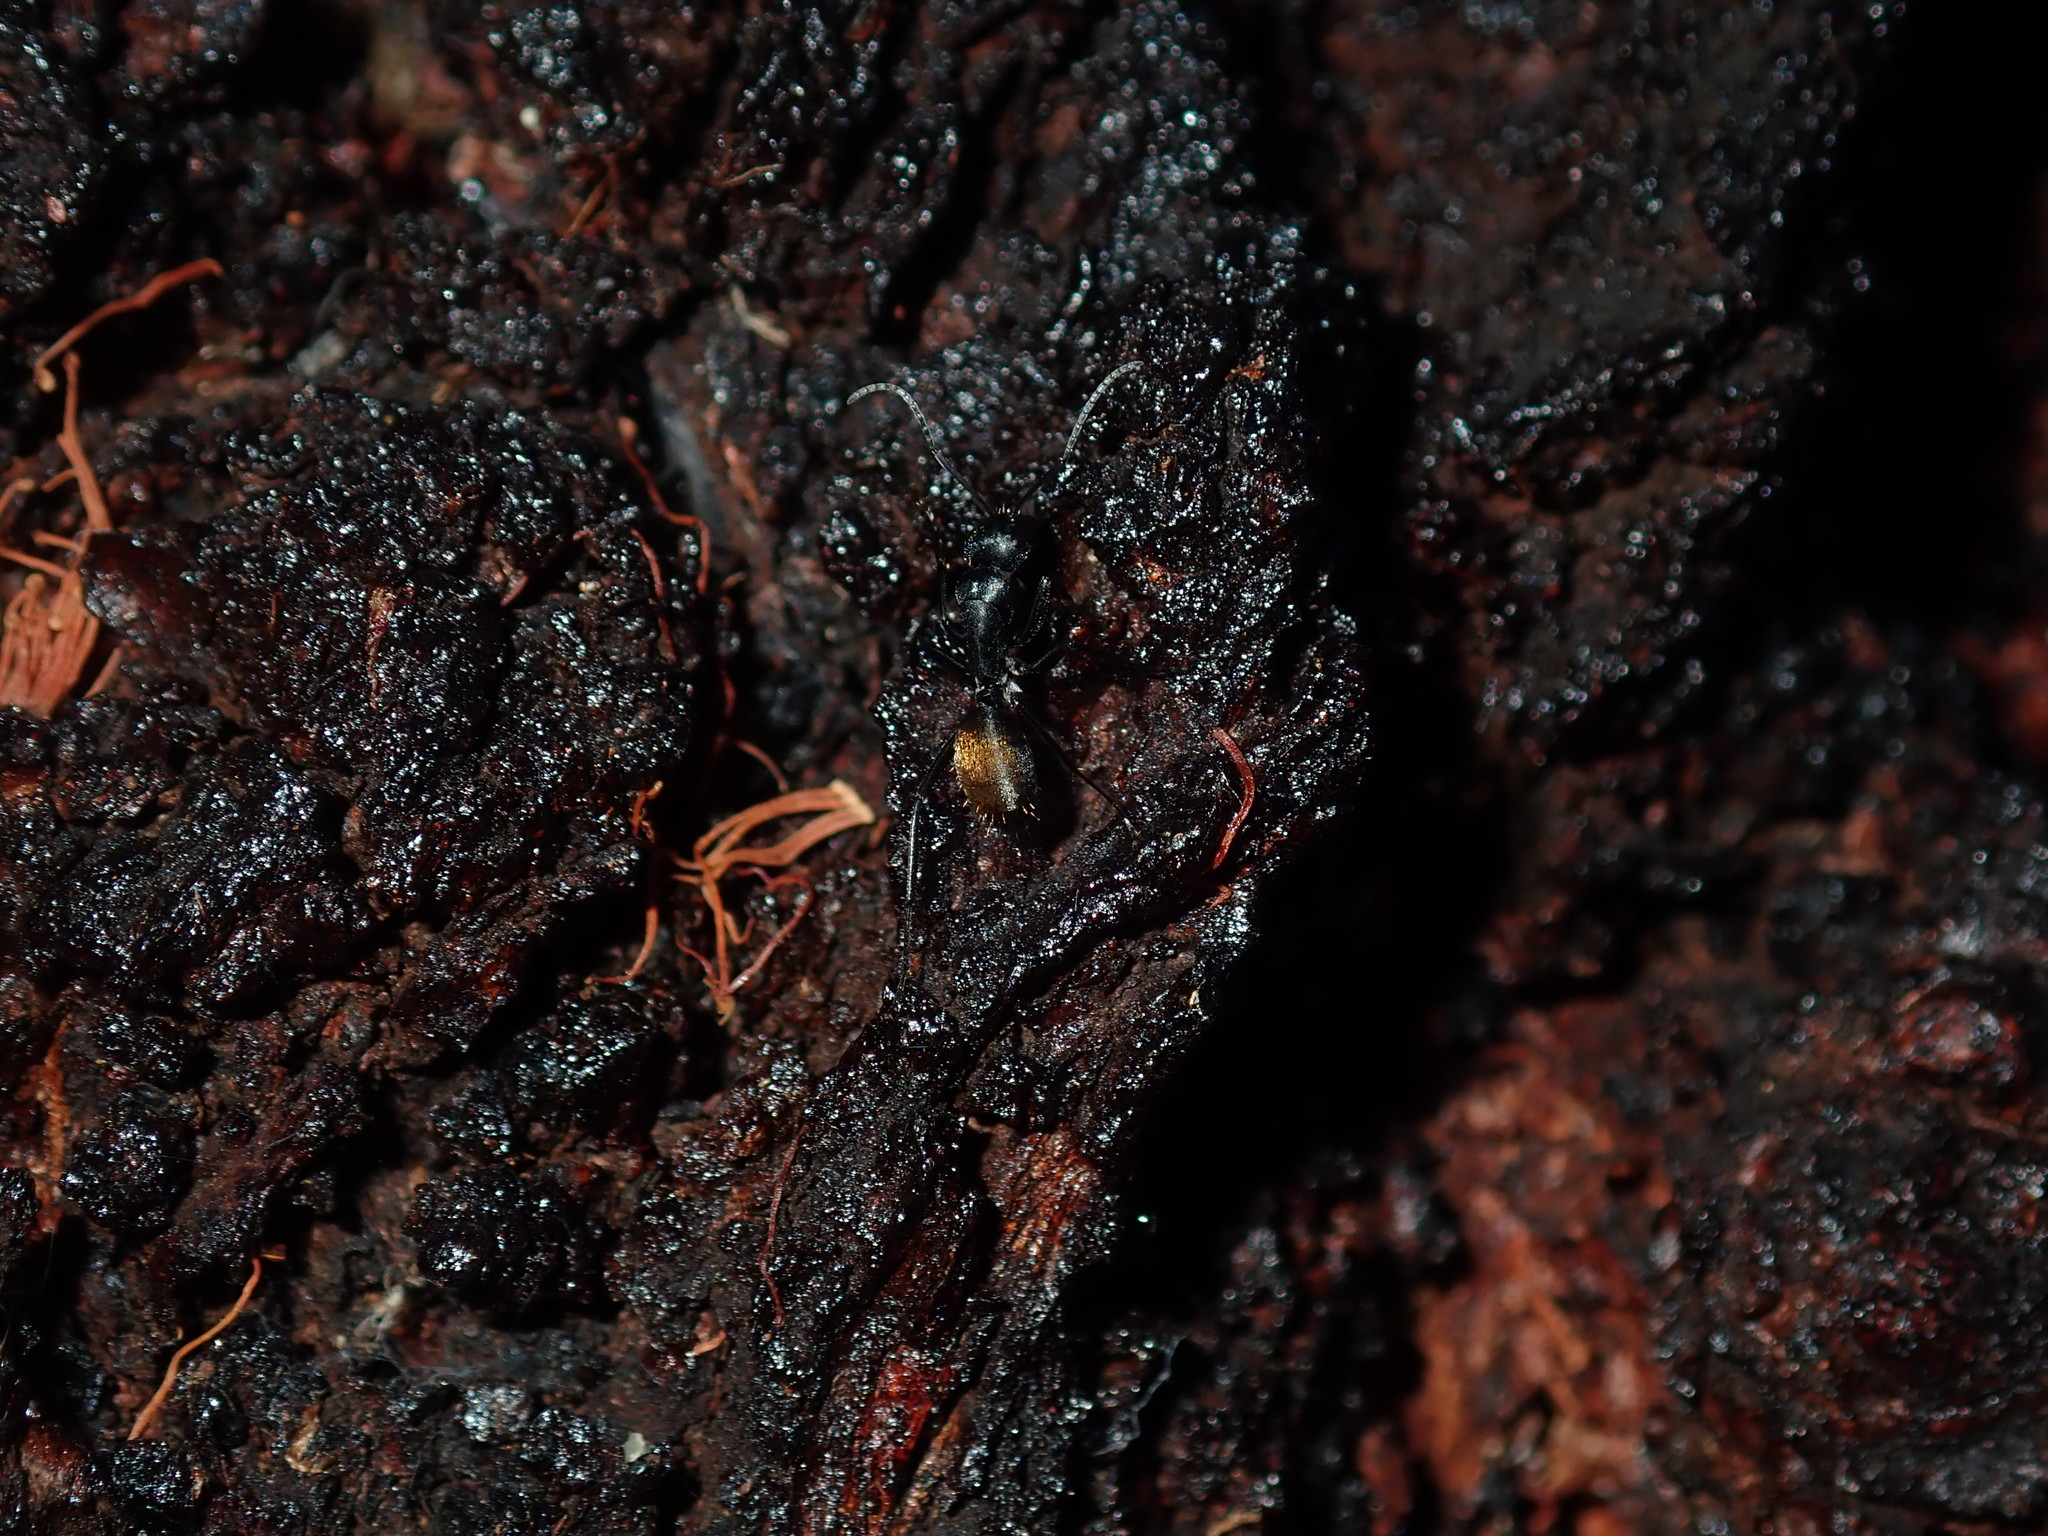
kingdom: Animalia
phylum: Arthropoda
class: Insecta
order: Hymenoptera
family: Formicidae
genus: Camponotus
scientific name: Camponotus aeneopilosus
